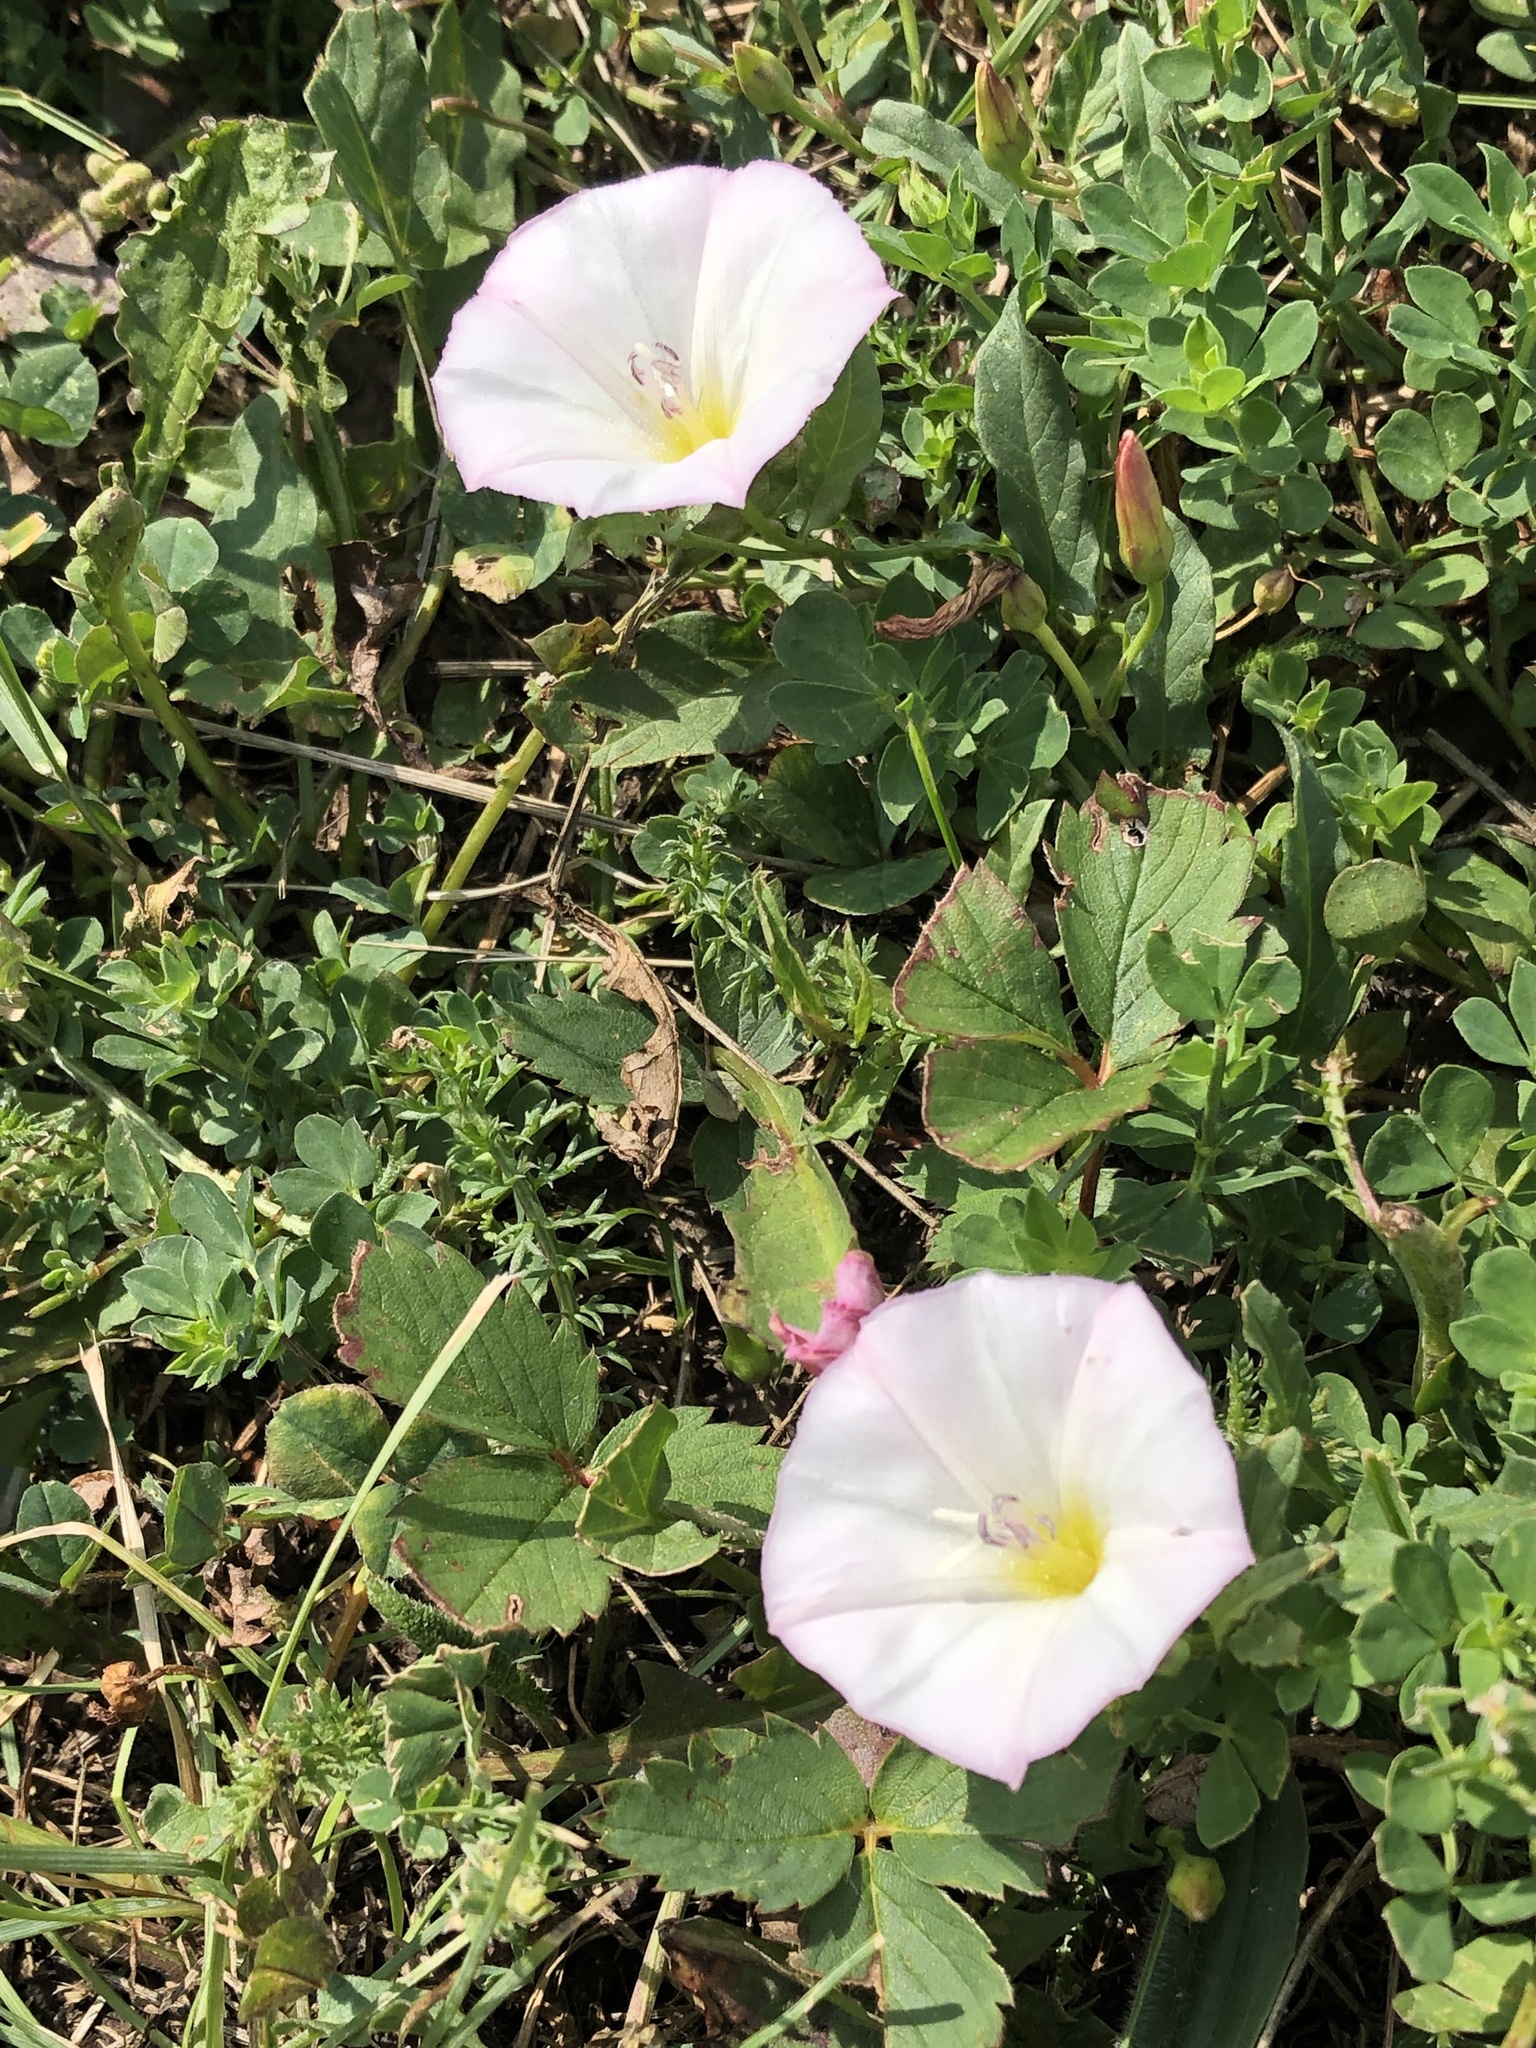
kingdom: Plantae
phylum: Tracheophyta
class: Magnoliopsida
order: Solanales
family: Convolvulaceae
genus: Convolvulus
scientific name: Convolvulus arvensis
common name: Field bindweed
